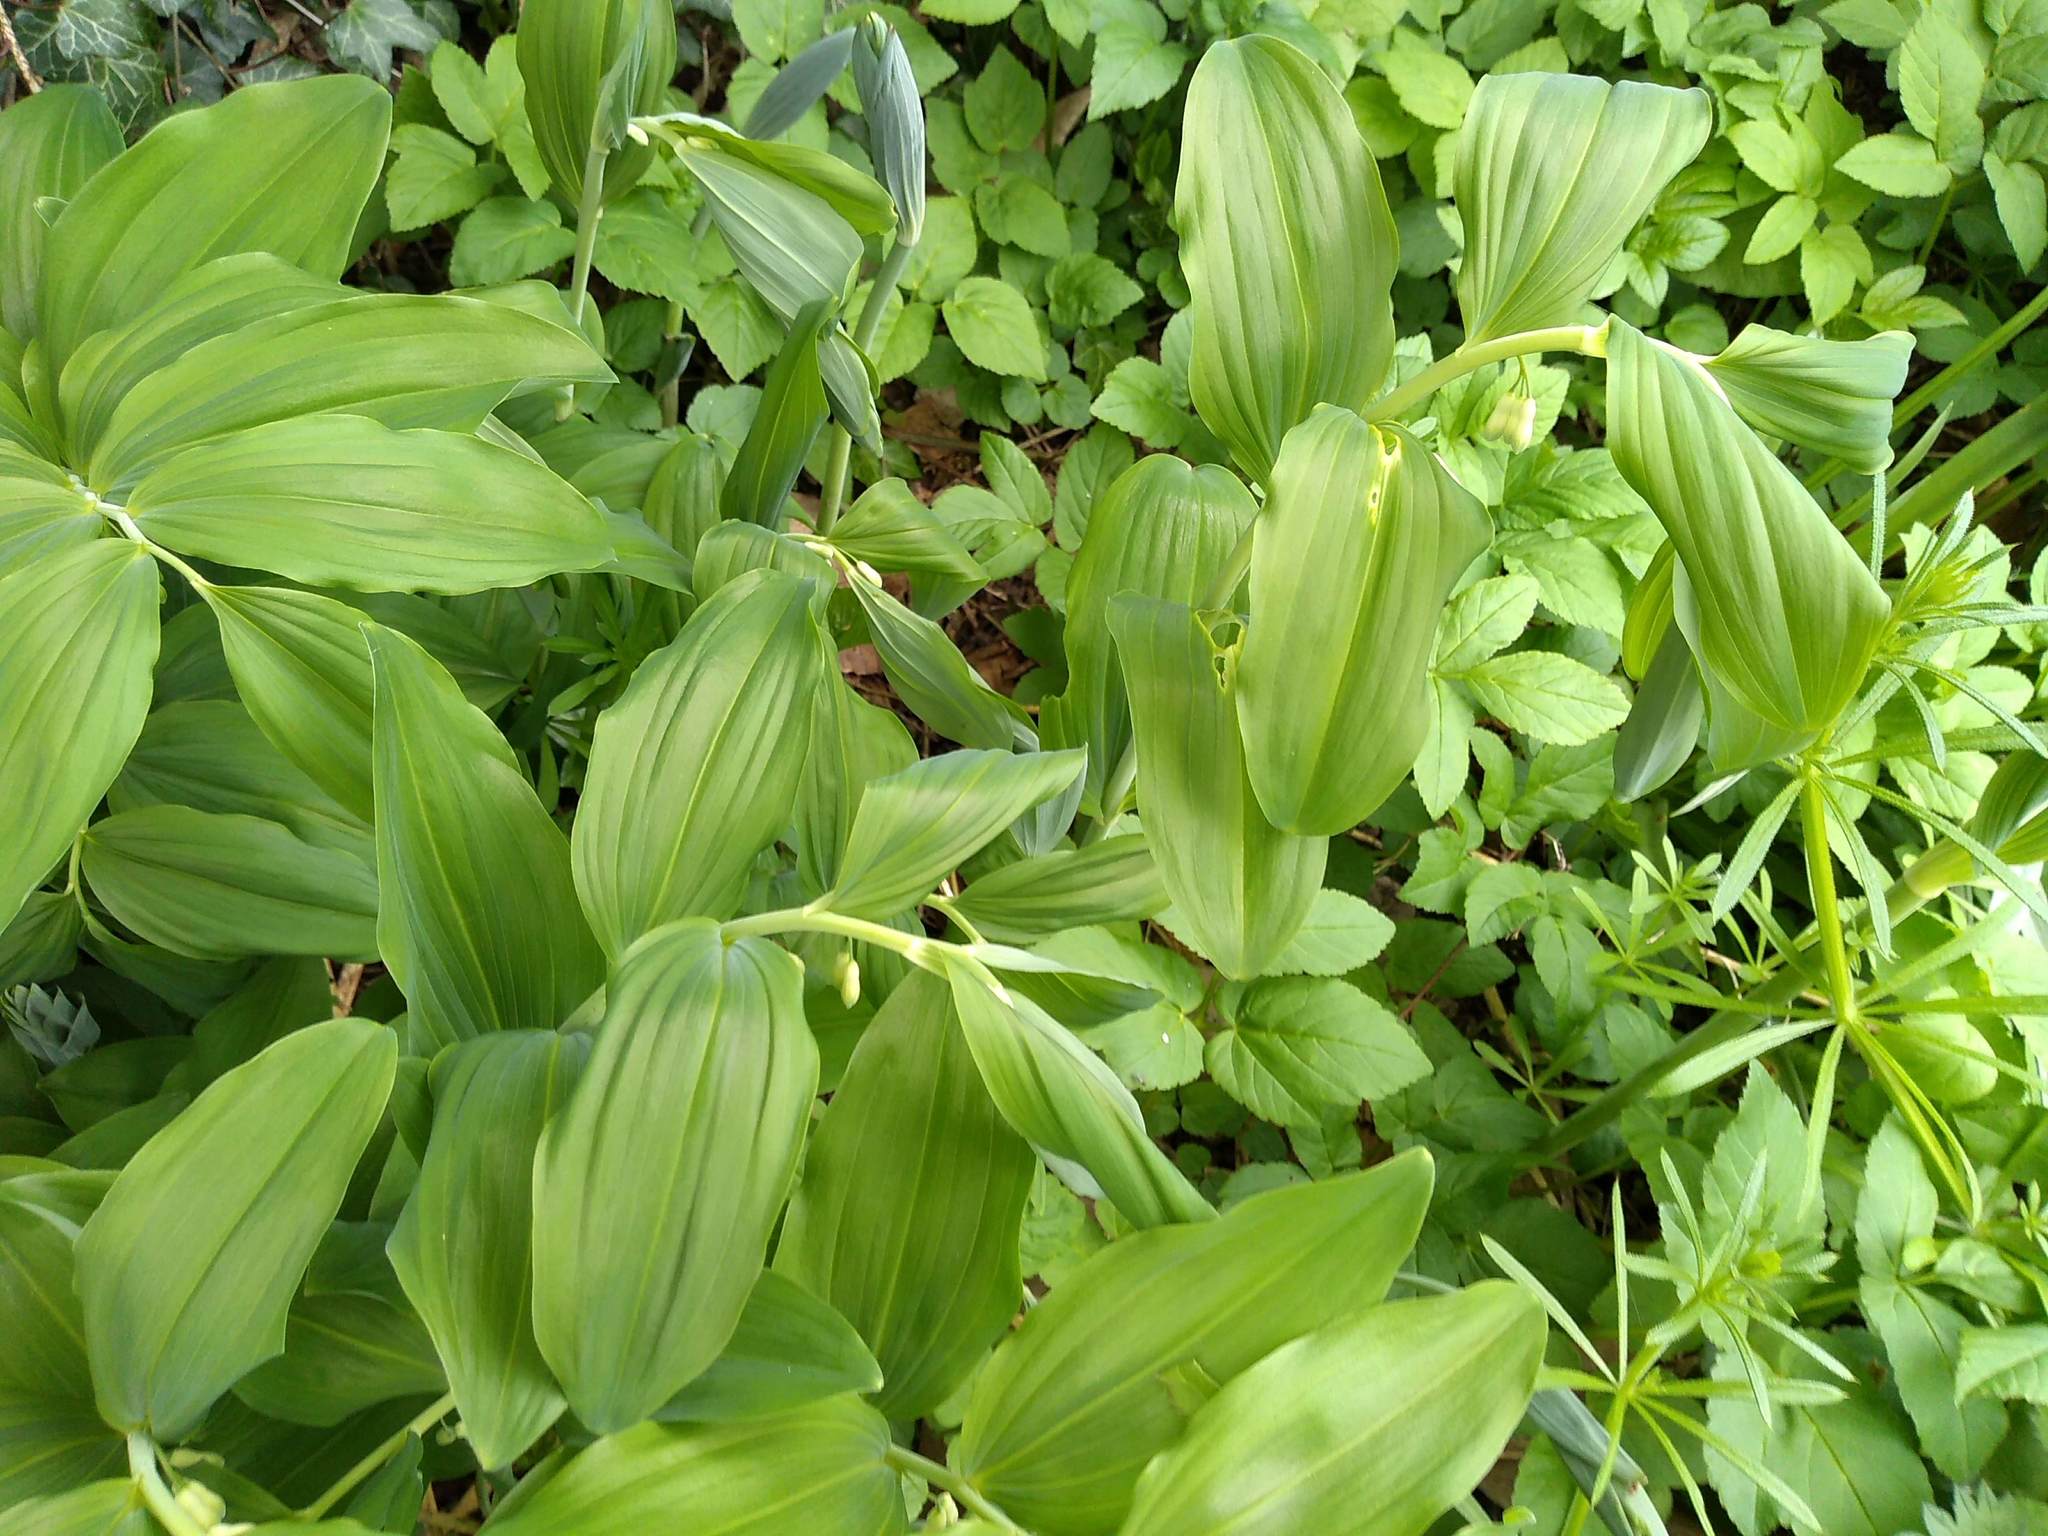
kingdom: Plantae
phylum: Tracheophyta
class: Liliopsida
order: Asparagales
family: Asparagaceae
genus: Polygonatum
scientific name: Polygonatum multiflorum
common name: Solomon's-seal
